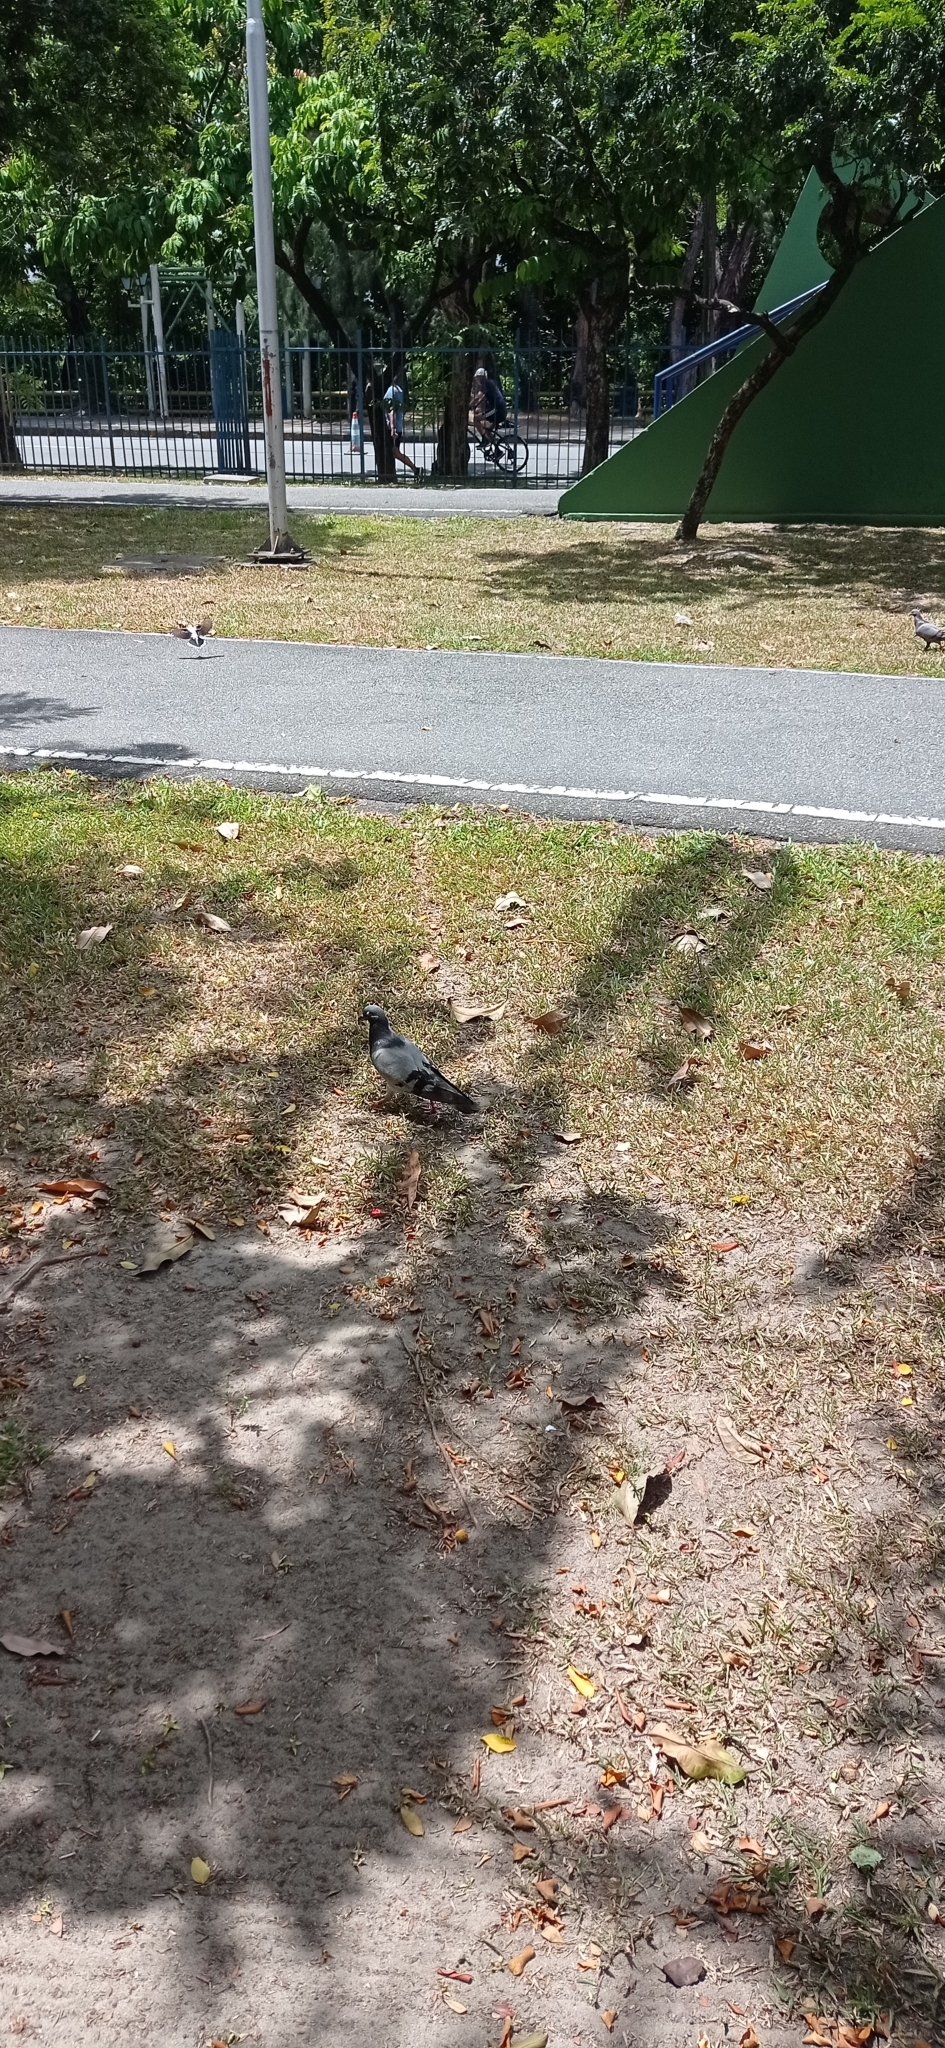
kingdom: Animalia
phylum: Chordata
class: Aves
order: Columbiformes
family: Columbidae
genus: Columba
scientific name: Columba livia
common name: Rock pigeon
